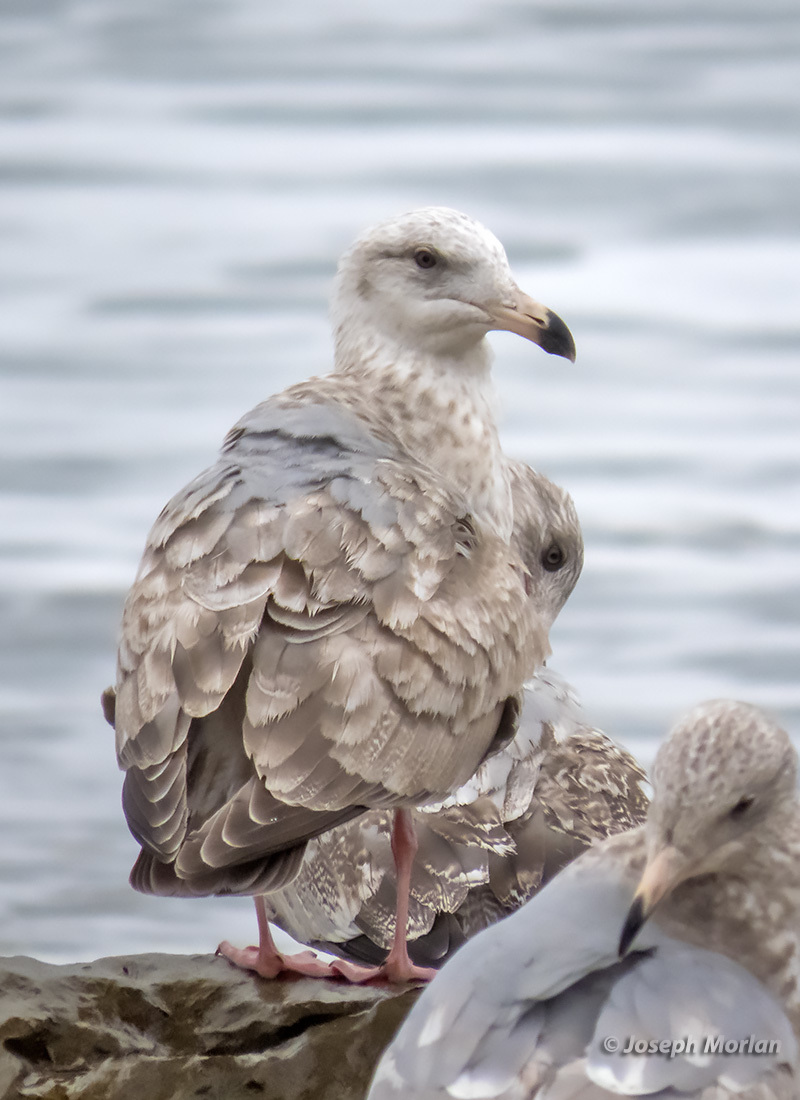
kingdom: Animalia
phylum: Chordata
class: Aves
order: Charadriiformes
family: Laridae
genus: Larus
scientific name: Larus
